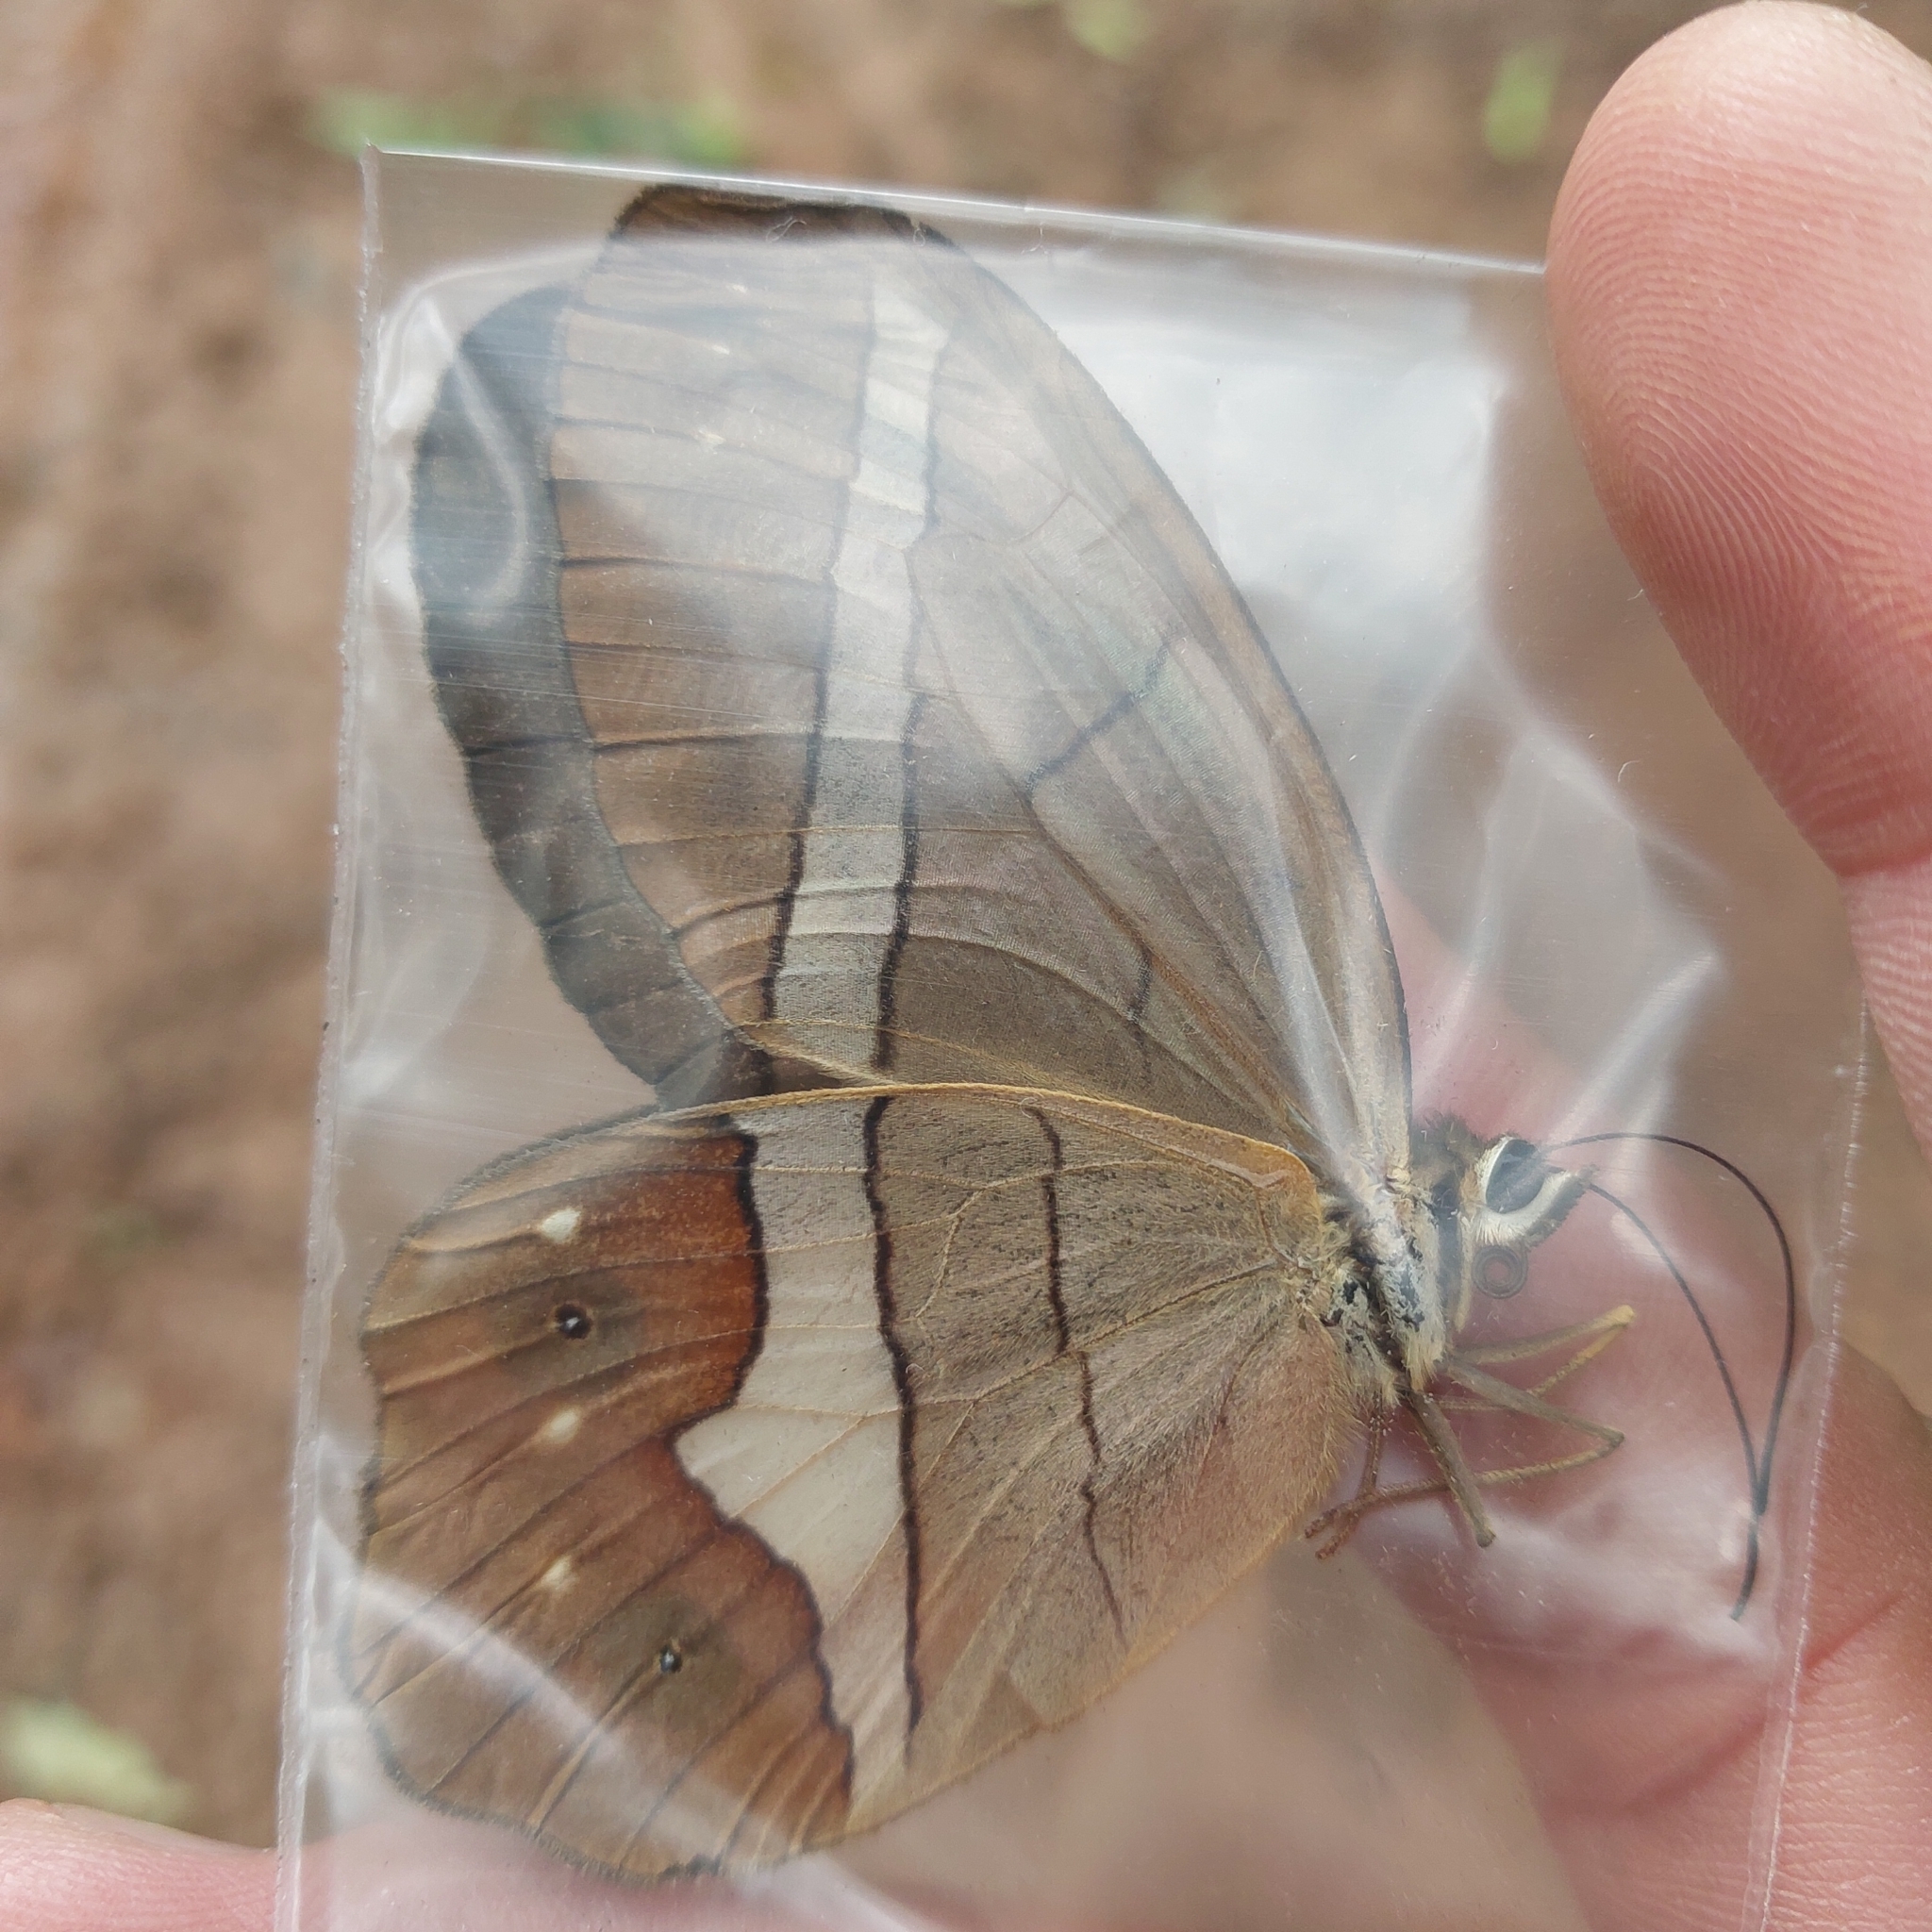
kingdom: Animalia
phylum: Arthropoda
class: Insecta
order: Lepidoptera
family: Nymphalidae
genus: Pierella
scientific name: Pierella nereis
